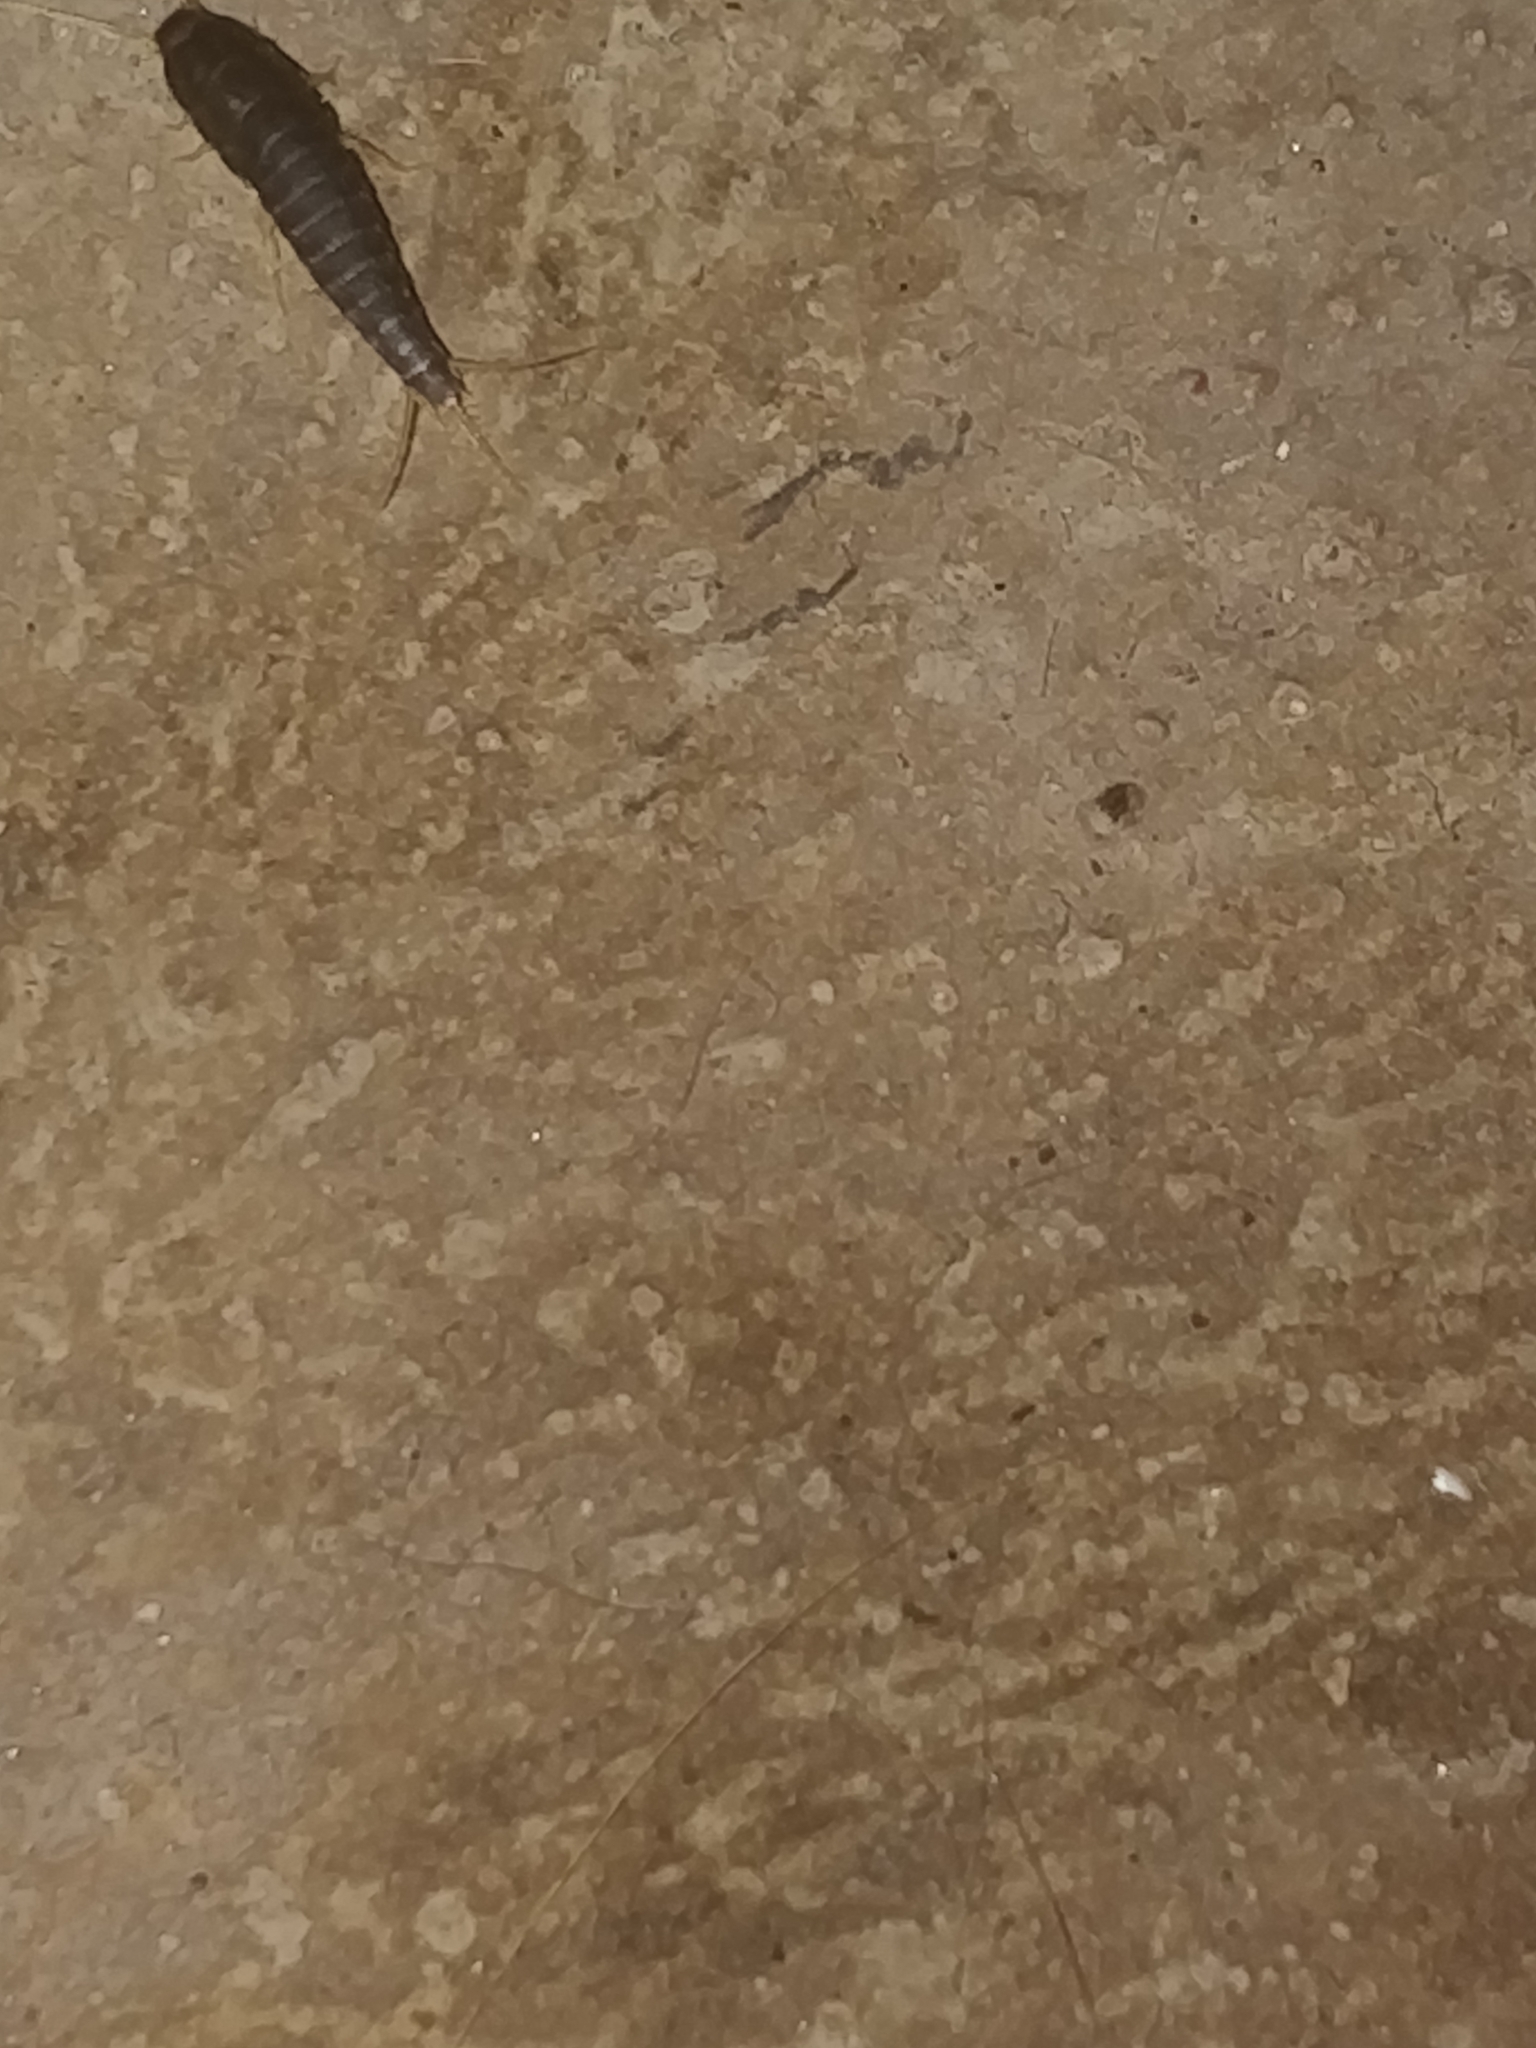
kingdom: Animalia
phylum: Arthropoda
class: Insecta
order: Zygentoma
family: Lepismatidae
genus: Lepisma
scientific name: Lepisma saccharinum
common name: Silverfish
